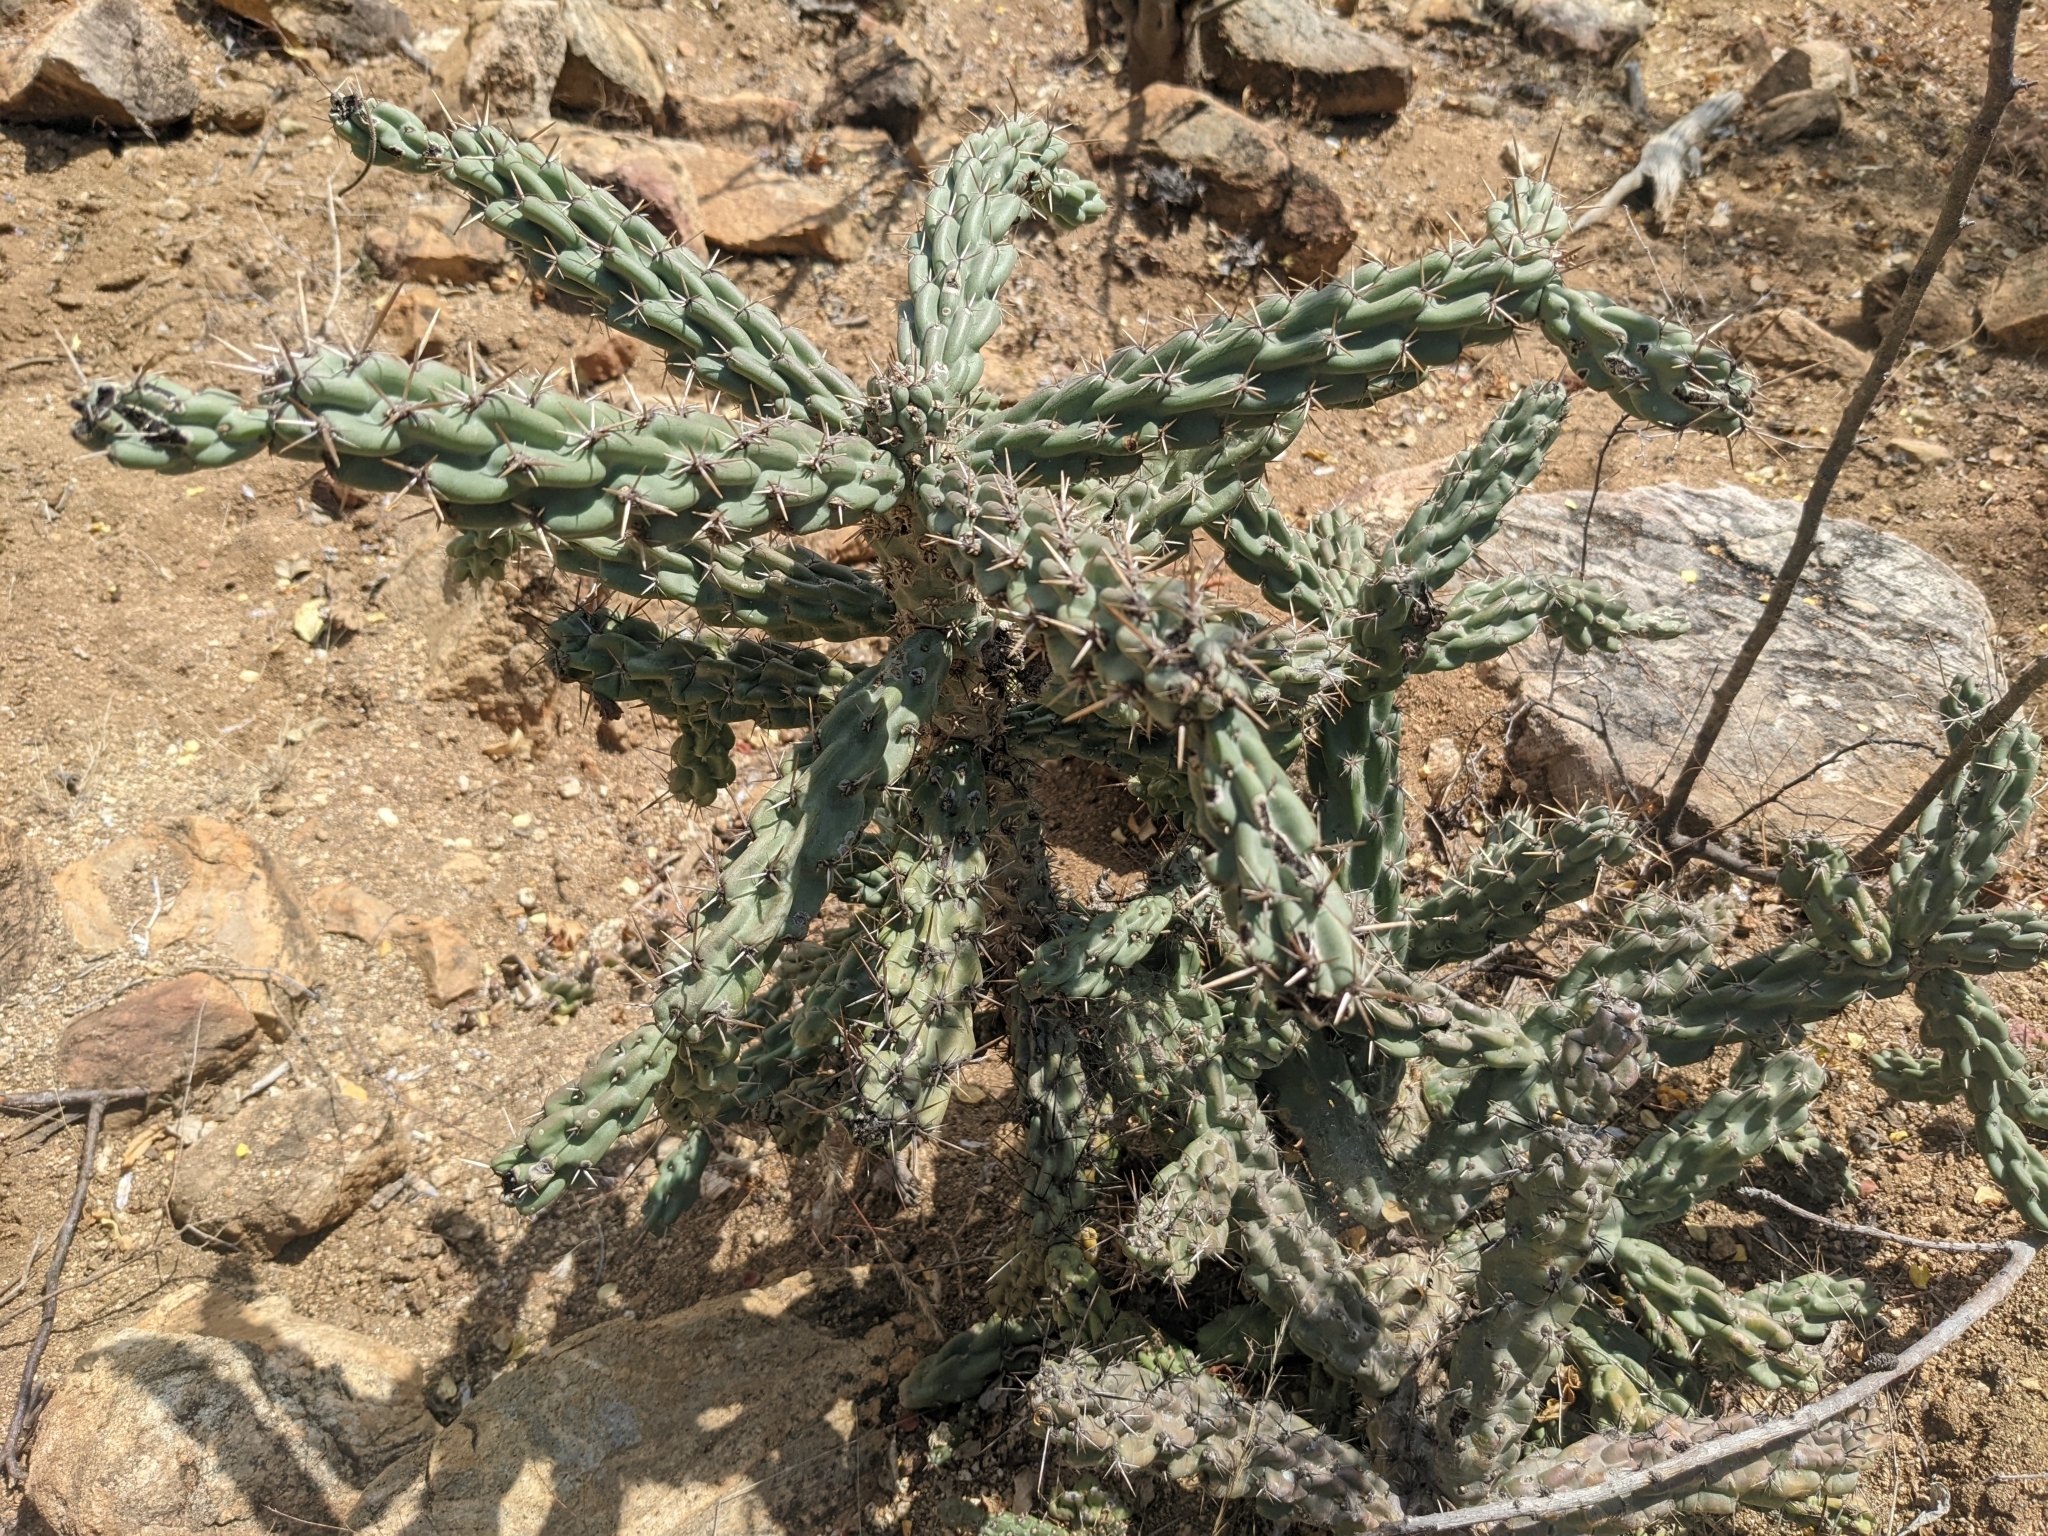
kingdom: Plantae
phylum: Tracheophyta
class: Magnoliopsida
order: Caryophyllales
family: Cactaceae
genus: Cylindropuntia
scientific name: Cylindropuntia cholla
